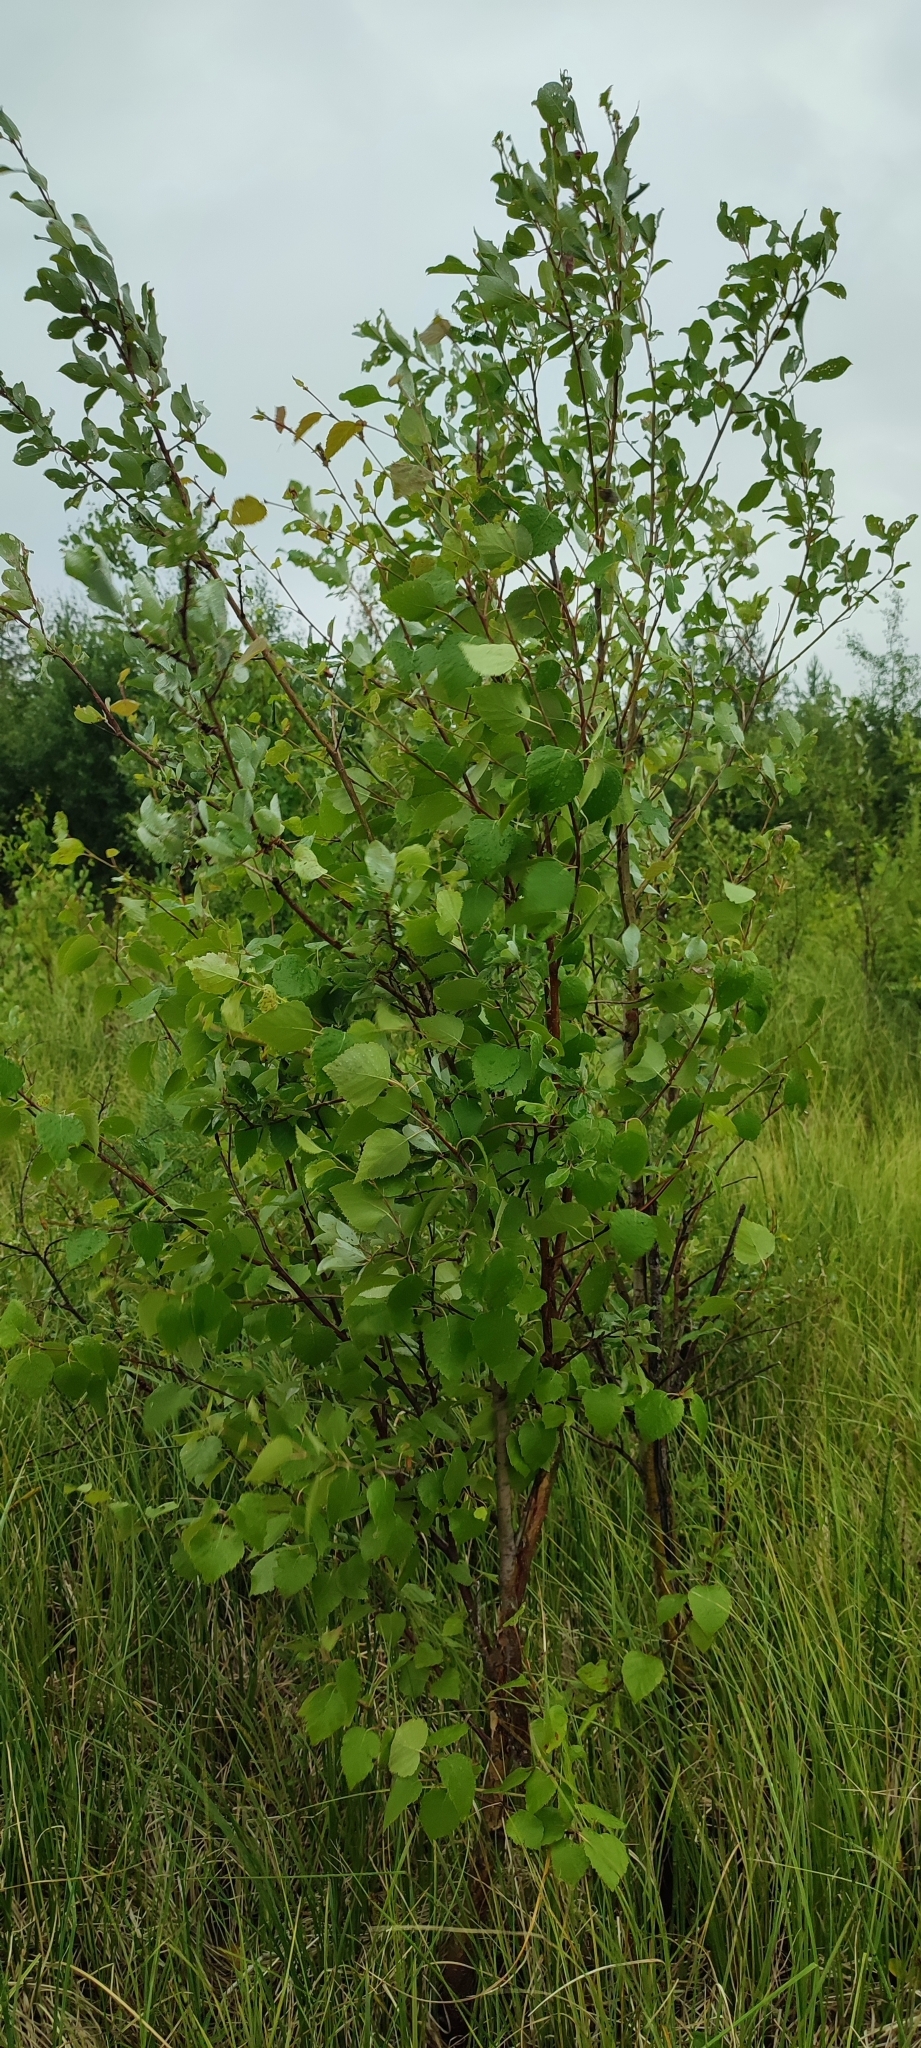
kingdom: Plantae
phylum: Tracheophyta
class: Magnoliopsida
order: Fagales
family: Betulaceae
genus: Betula
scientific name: Betula pubescens
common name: Downy birch
